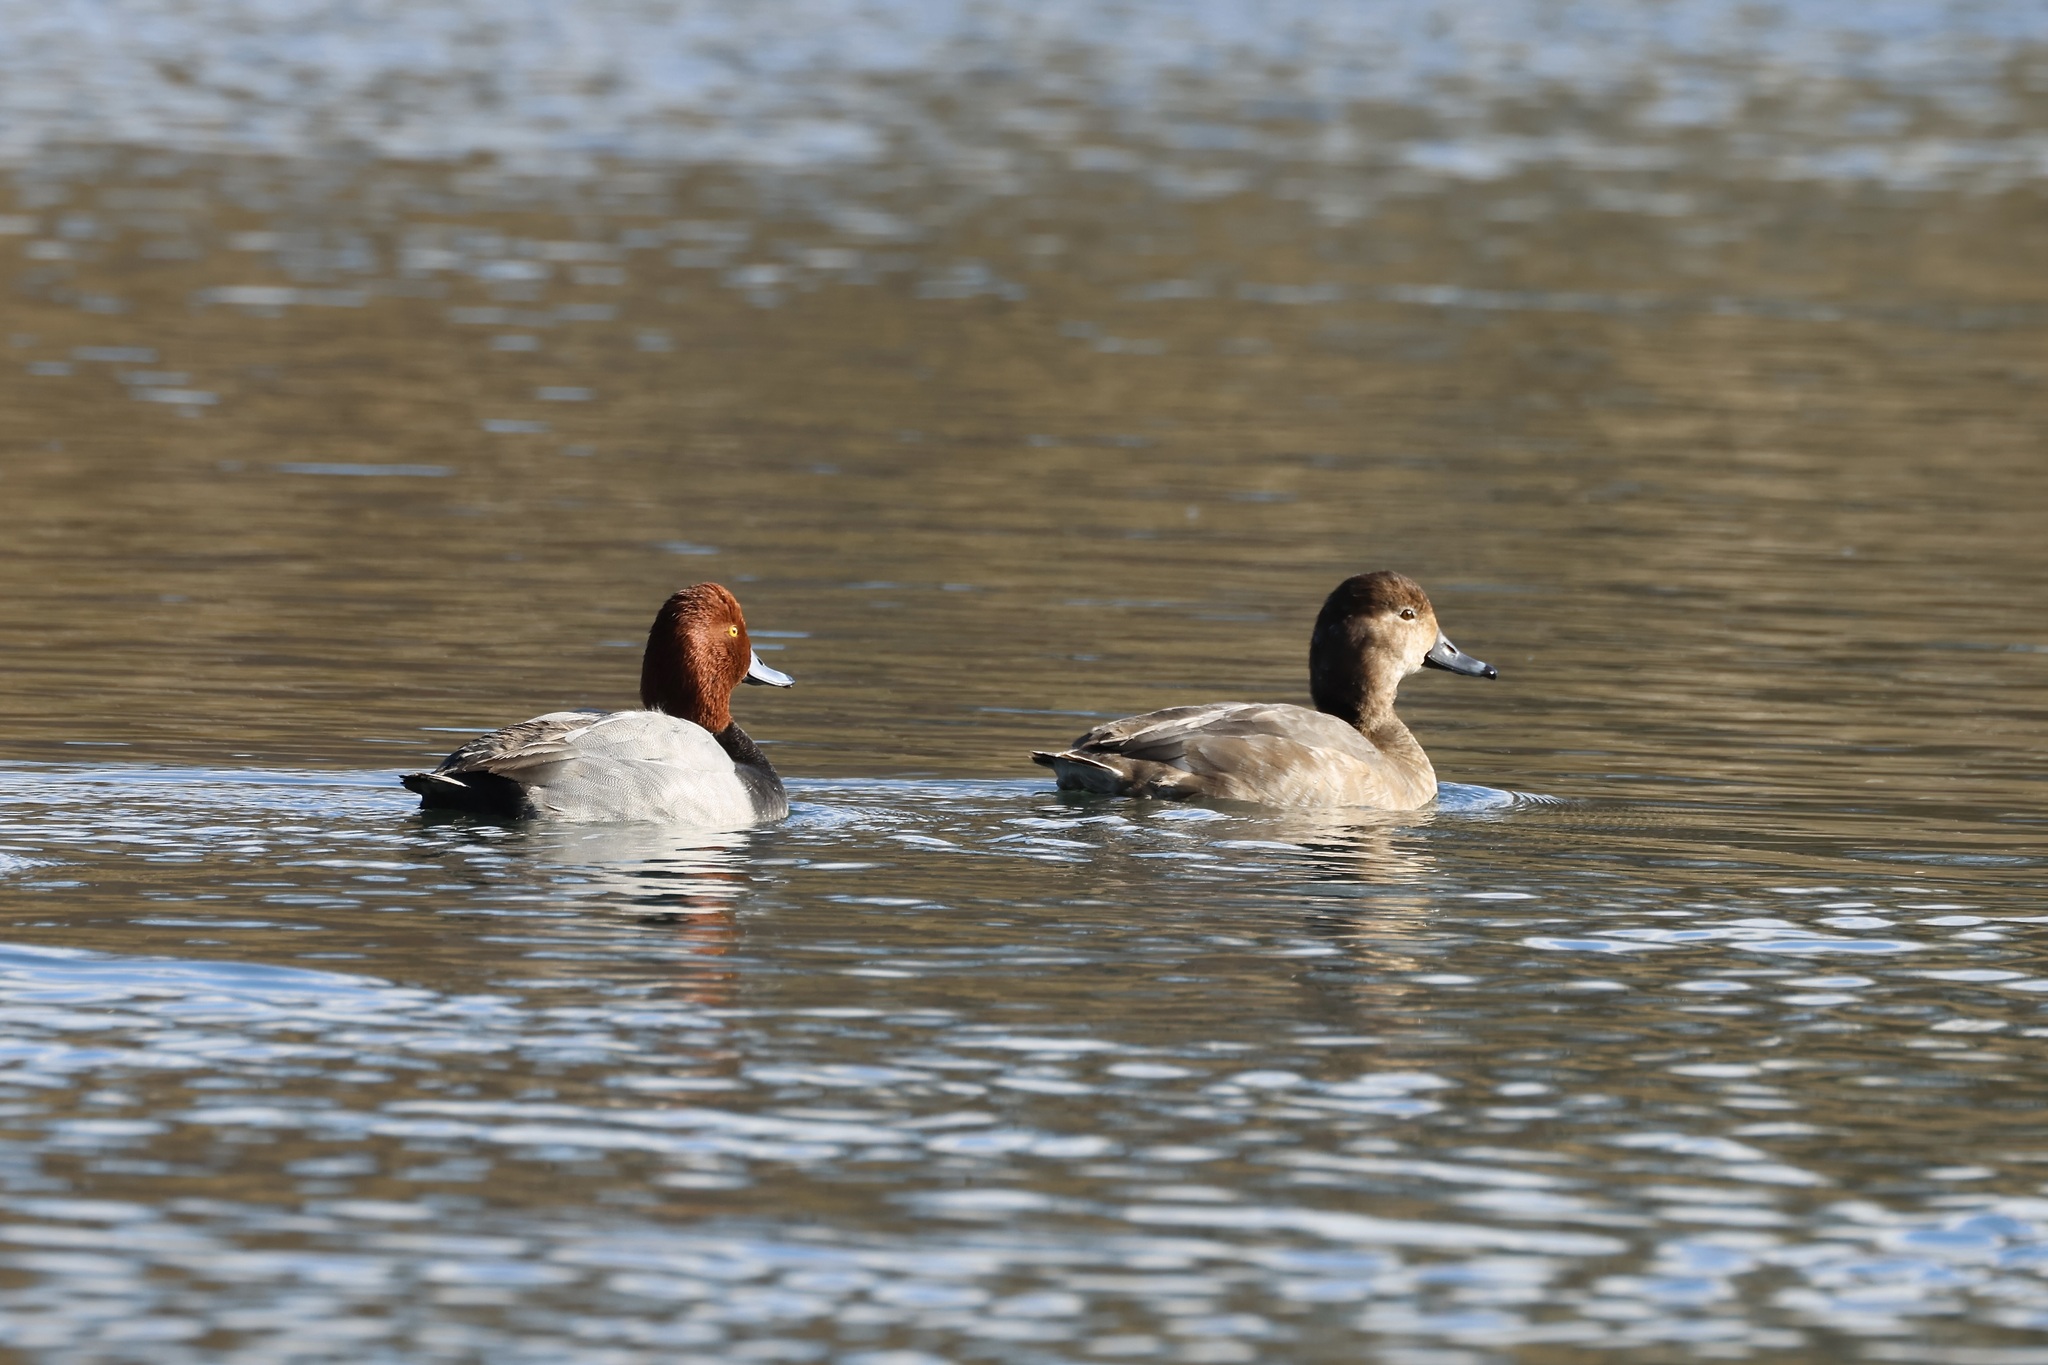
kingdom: Animalia
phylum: Chordata
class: Aves
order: Anseriformes
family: Anatidae
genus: Aythya
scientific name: Aythya americana
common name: Redhead
